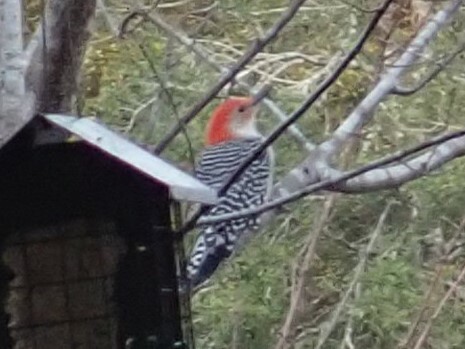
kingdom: Animalia
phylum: Chordata
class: Aves
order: Piciformes
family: Picidae
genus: Melanerpes
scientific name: Melanerpes carolinus
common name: Red-bellied woodpecker
